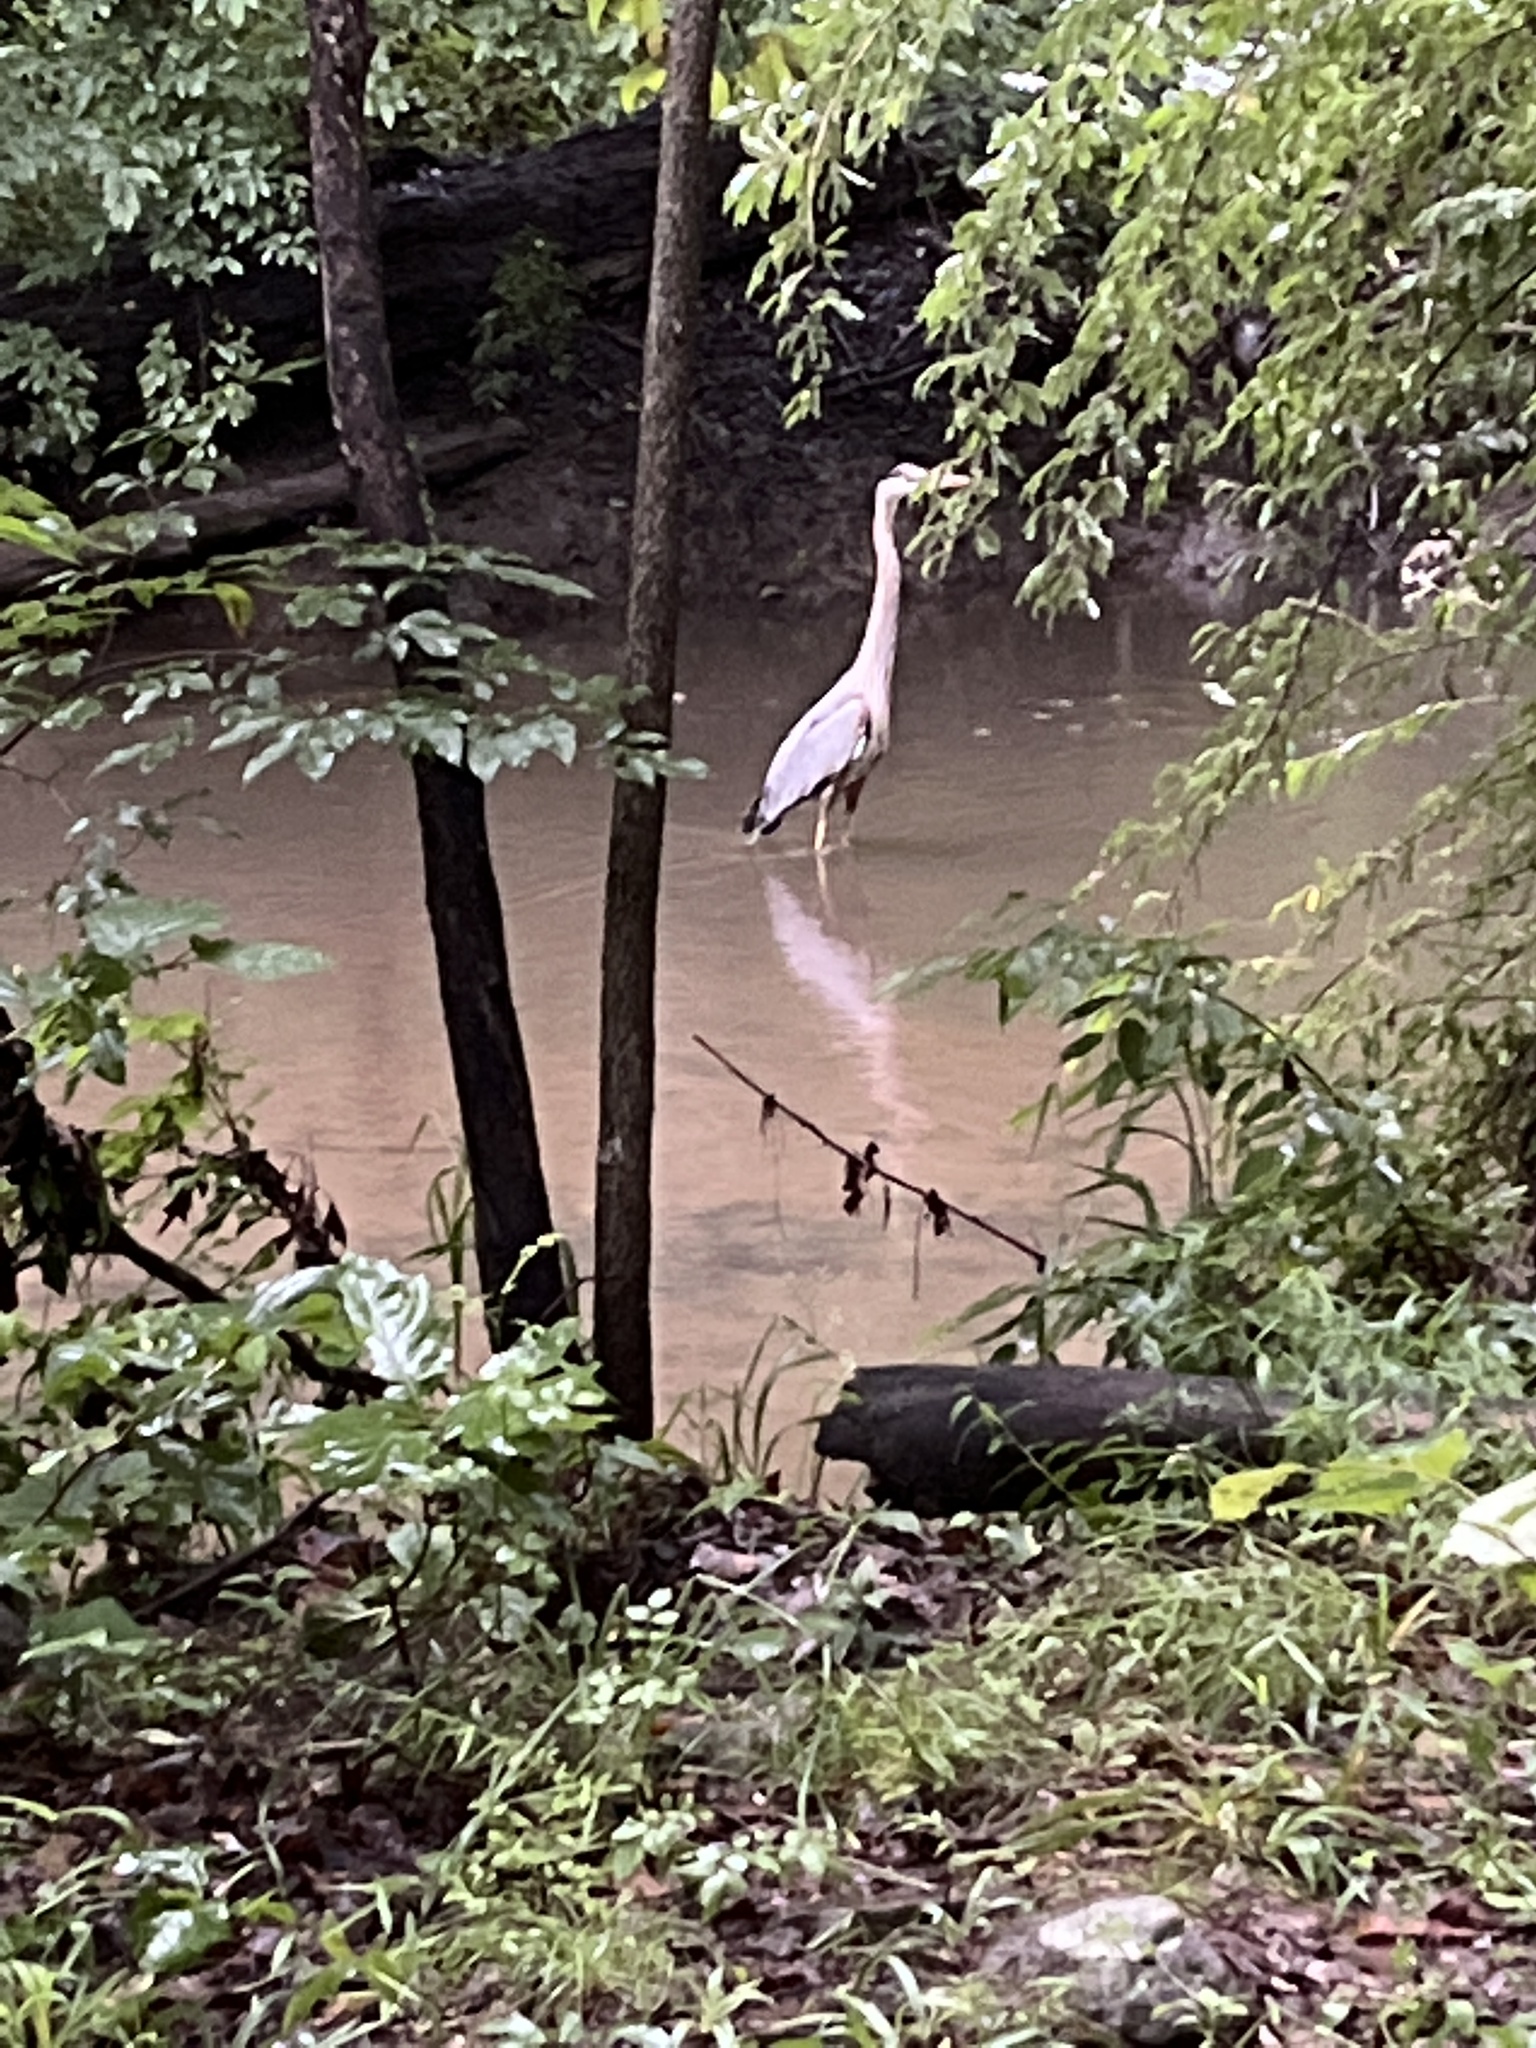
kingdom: Animalia
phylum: Chordata
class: Aves
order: Pelecaniformes
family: Ardeidae
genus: Ardea
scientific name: Ardea herodias
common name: Great blue heron
